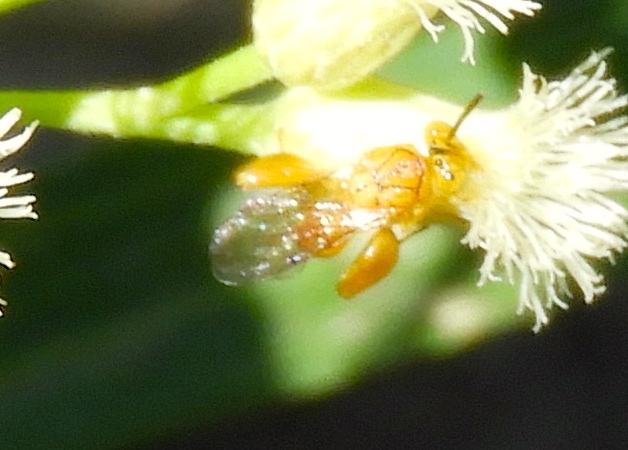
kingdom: Animalia
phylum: Arthropoda
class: Insecta
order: Hymenoptera
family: Chalcididae
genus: Conura
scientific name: Conura
